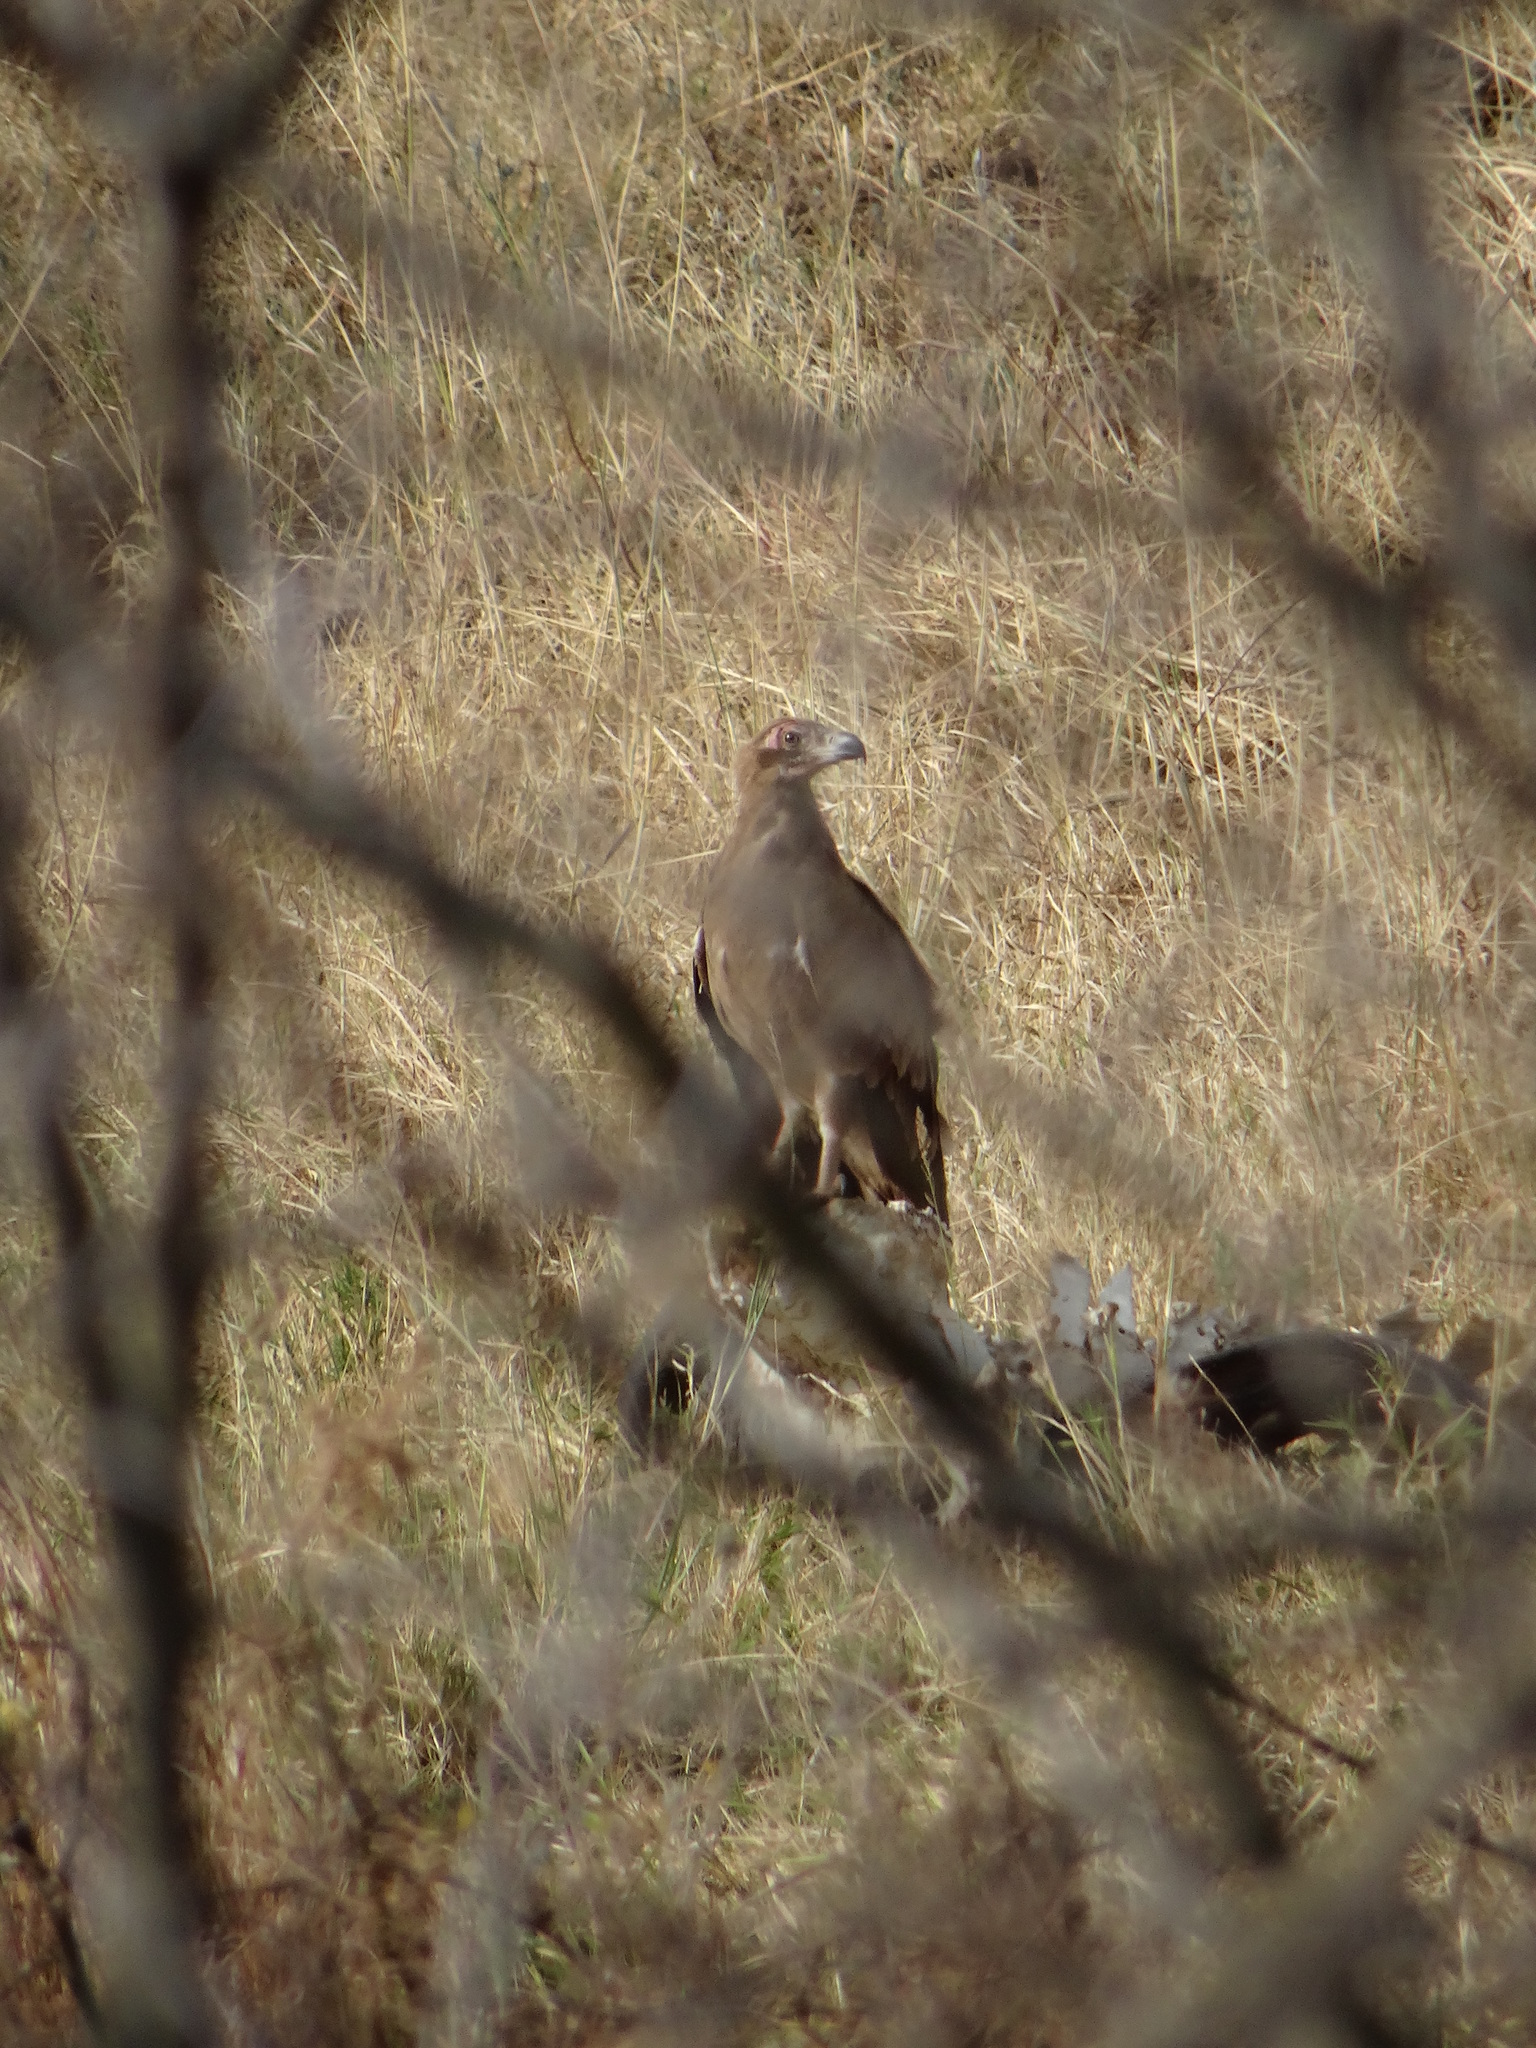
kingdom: Animalia
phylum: Chordata
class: Aves
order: Accipitriformes
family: Accipitridae
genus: Gypohierax
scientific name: Gypohierax angolensis
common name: Palm-nut vulture
